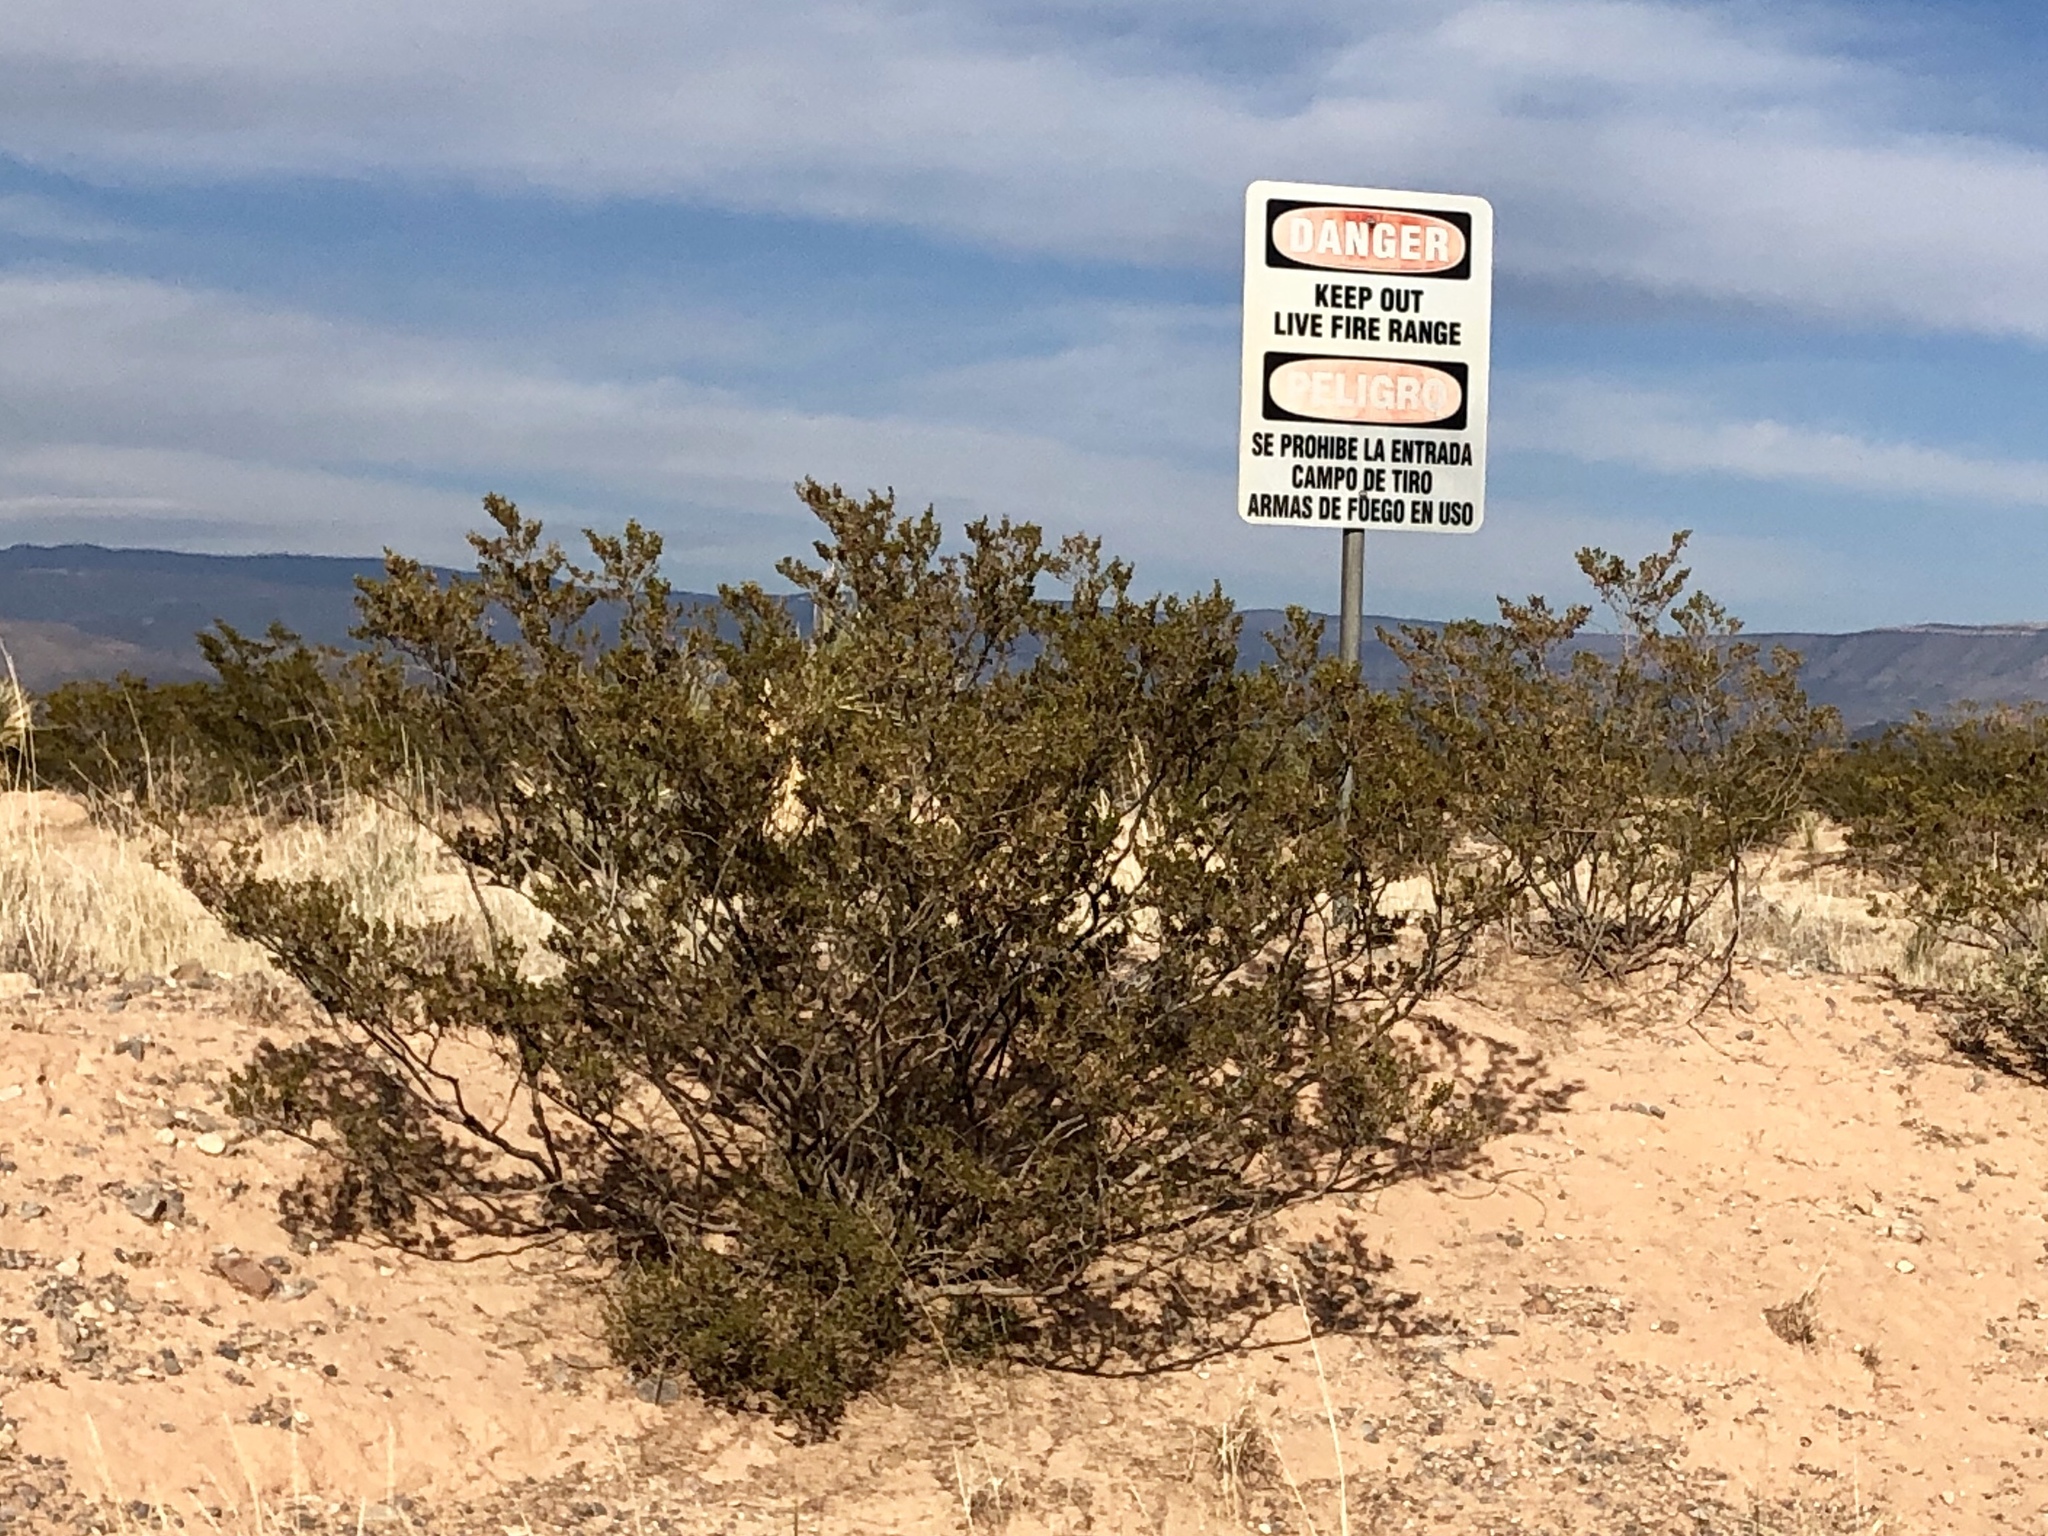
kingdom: Plantae
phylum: Tracheophyta
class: Magnoliopsida
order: Zygophyllales
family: Zygophyllaceae
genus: Larrea
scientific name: Larrea tridentata
